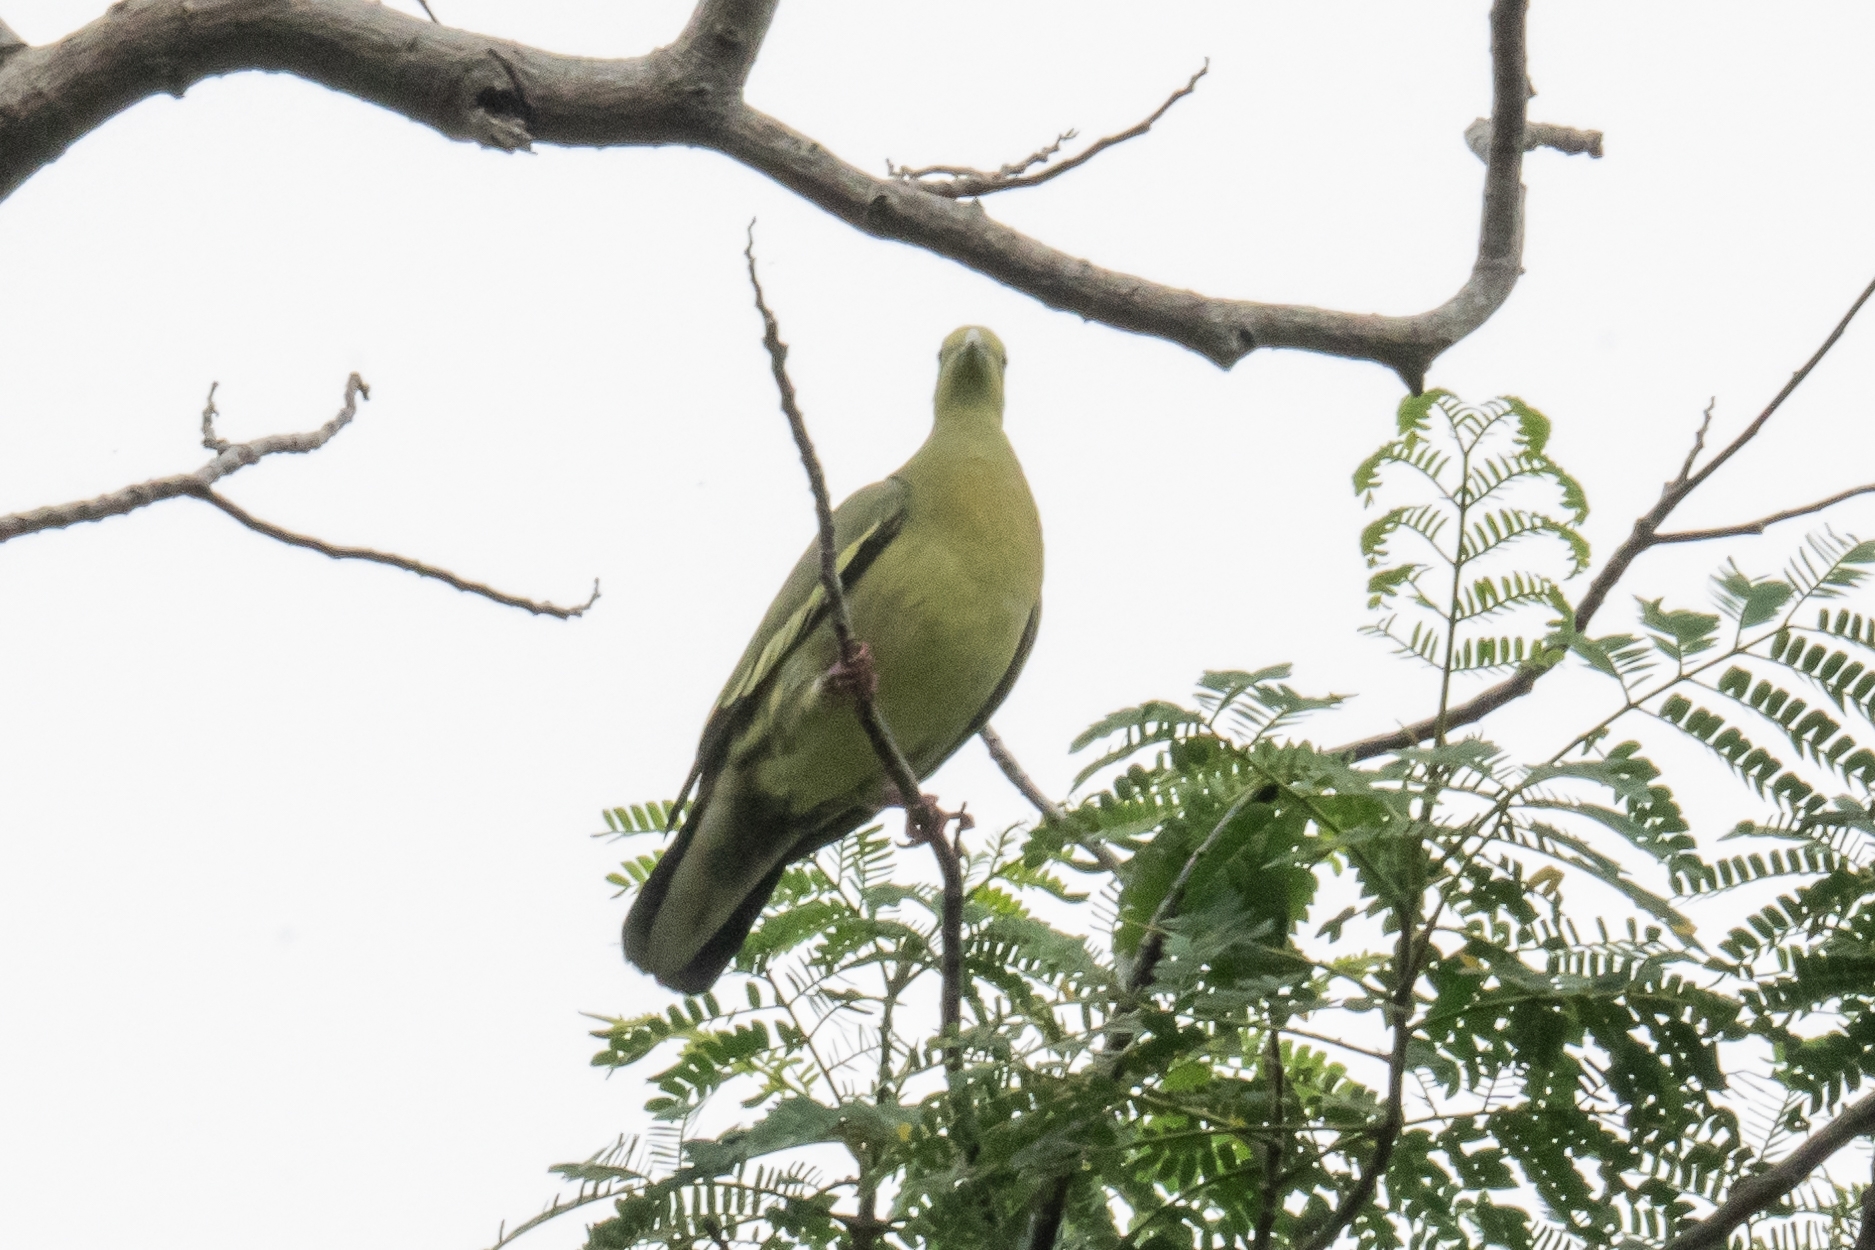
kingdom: Animalia
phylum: Chordata
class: Aves
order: Columbiformes
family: Columbidae
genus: Treron
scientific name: Treron vernans
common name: Pink-necked green pigeon
